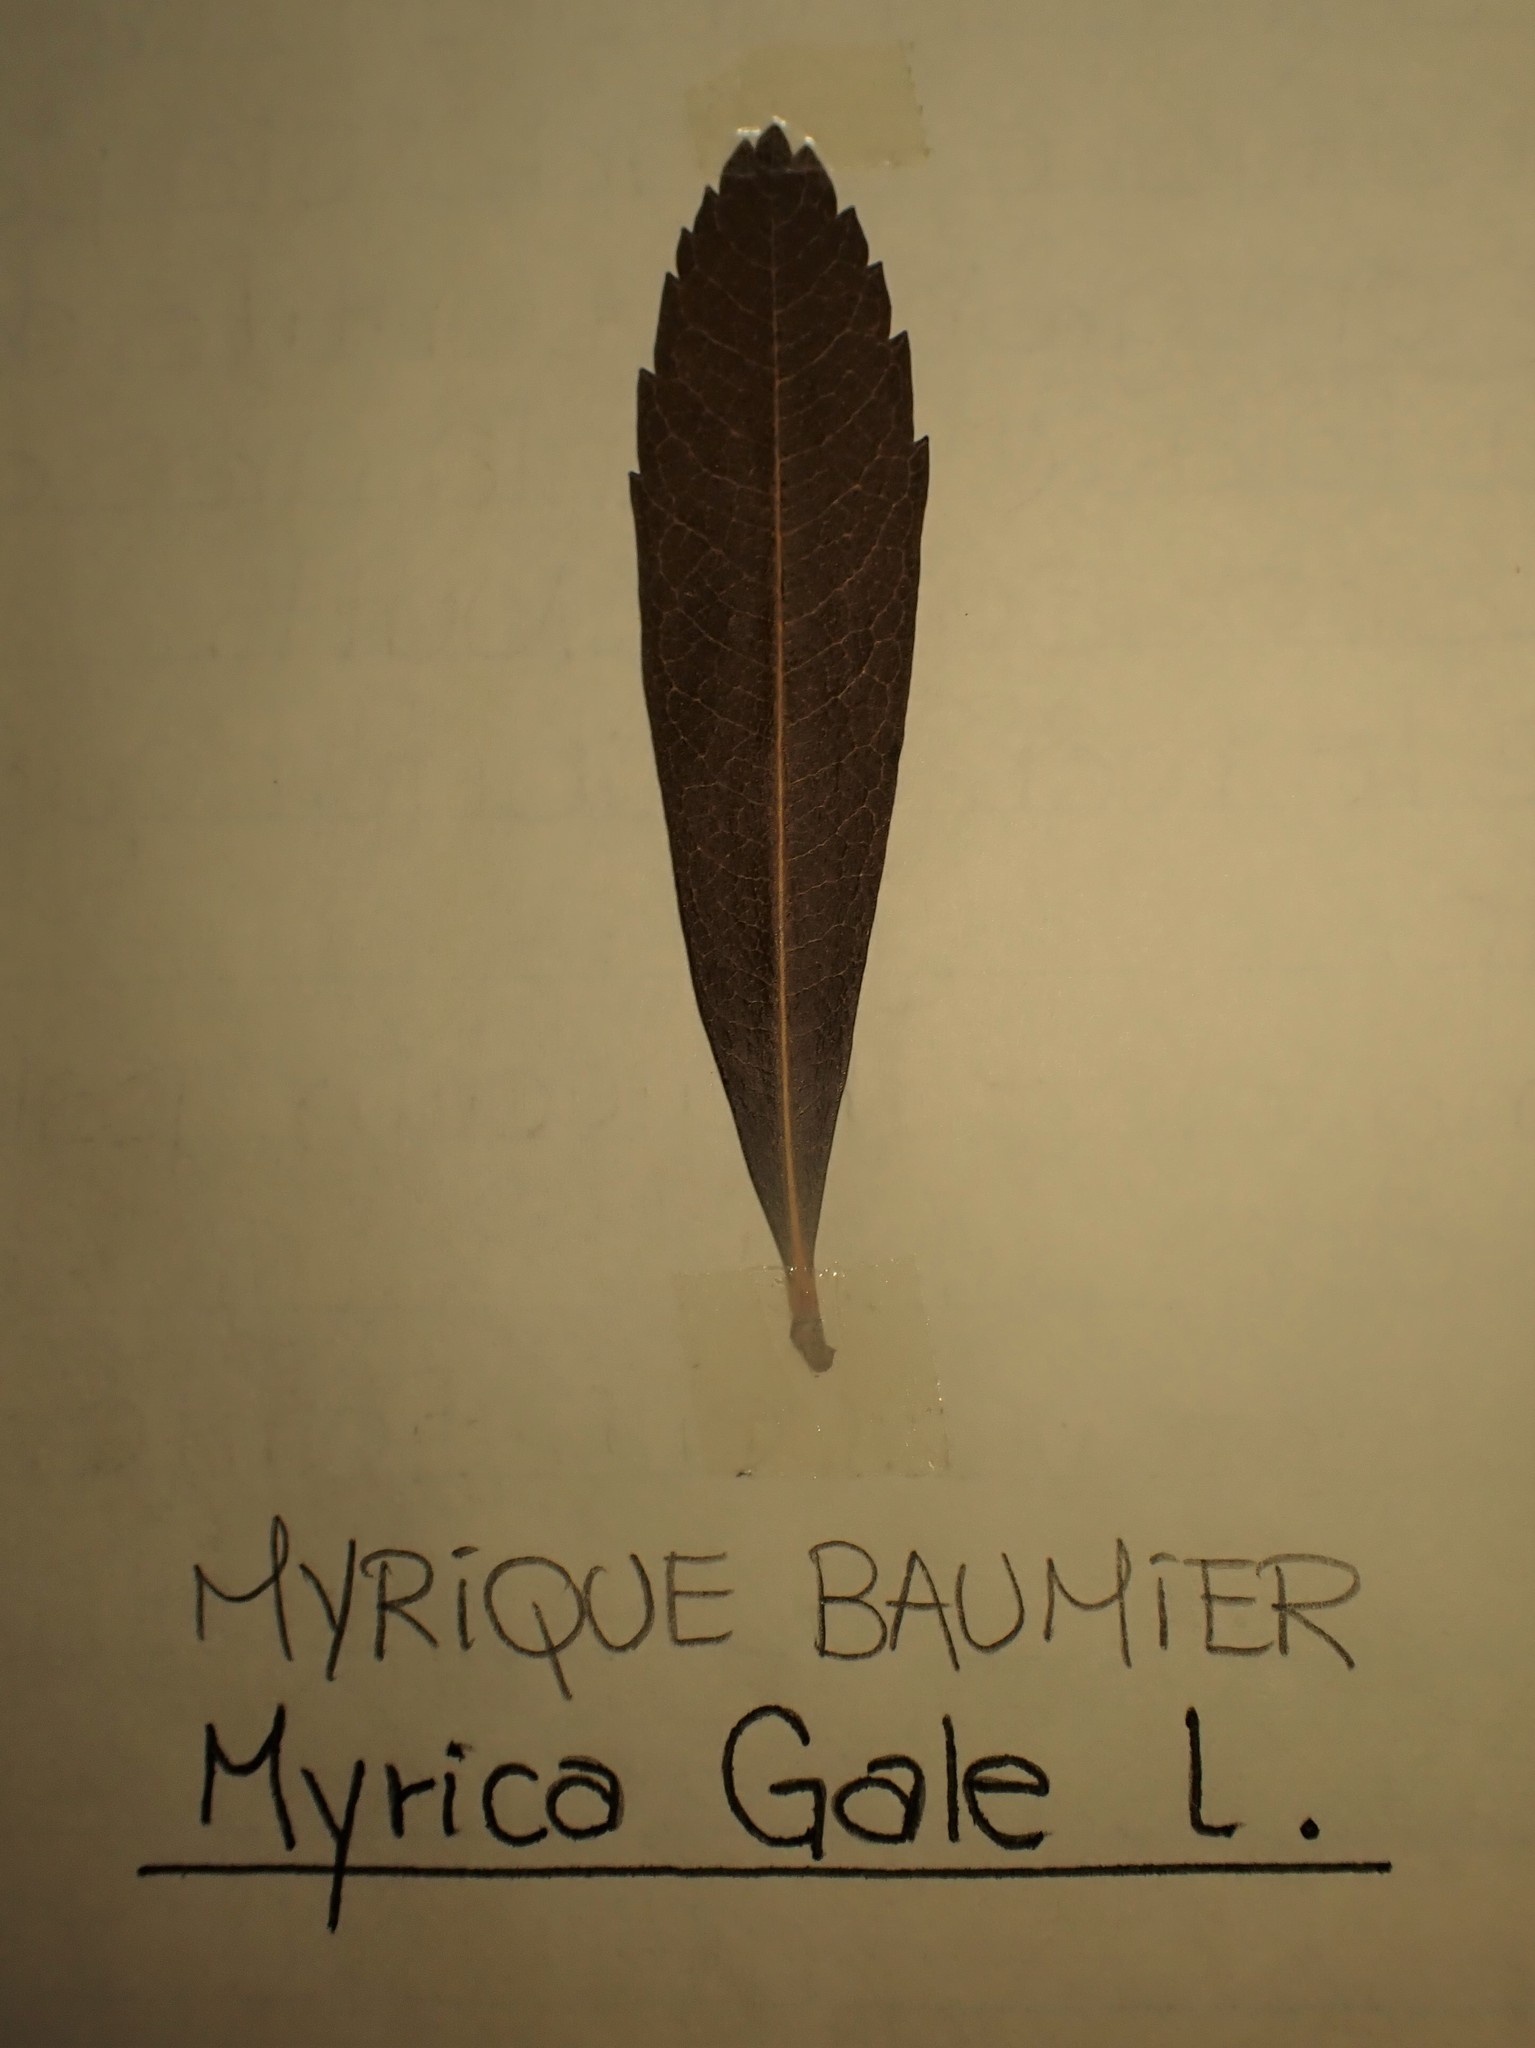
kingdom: Plantae
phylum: Tracheophyta
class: Magnoliopsida
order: Fagales
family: Myricaceae
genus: Myrica
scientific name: Myrica gale
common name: Sweet gale
